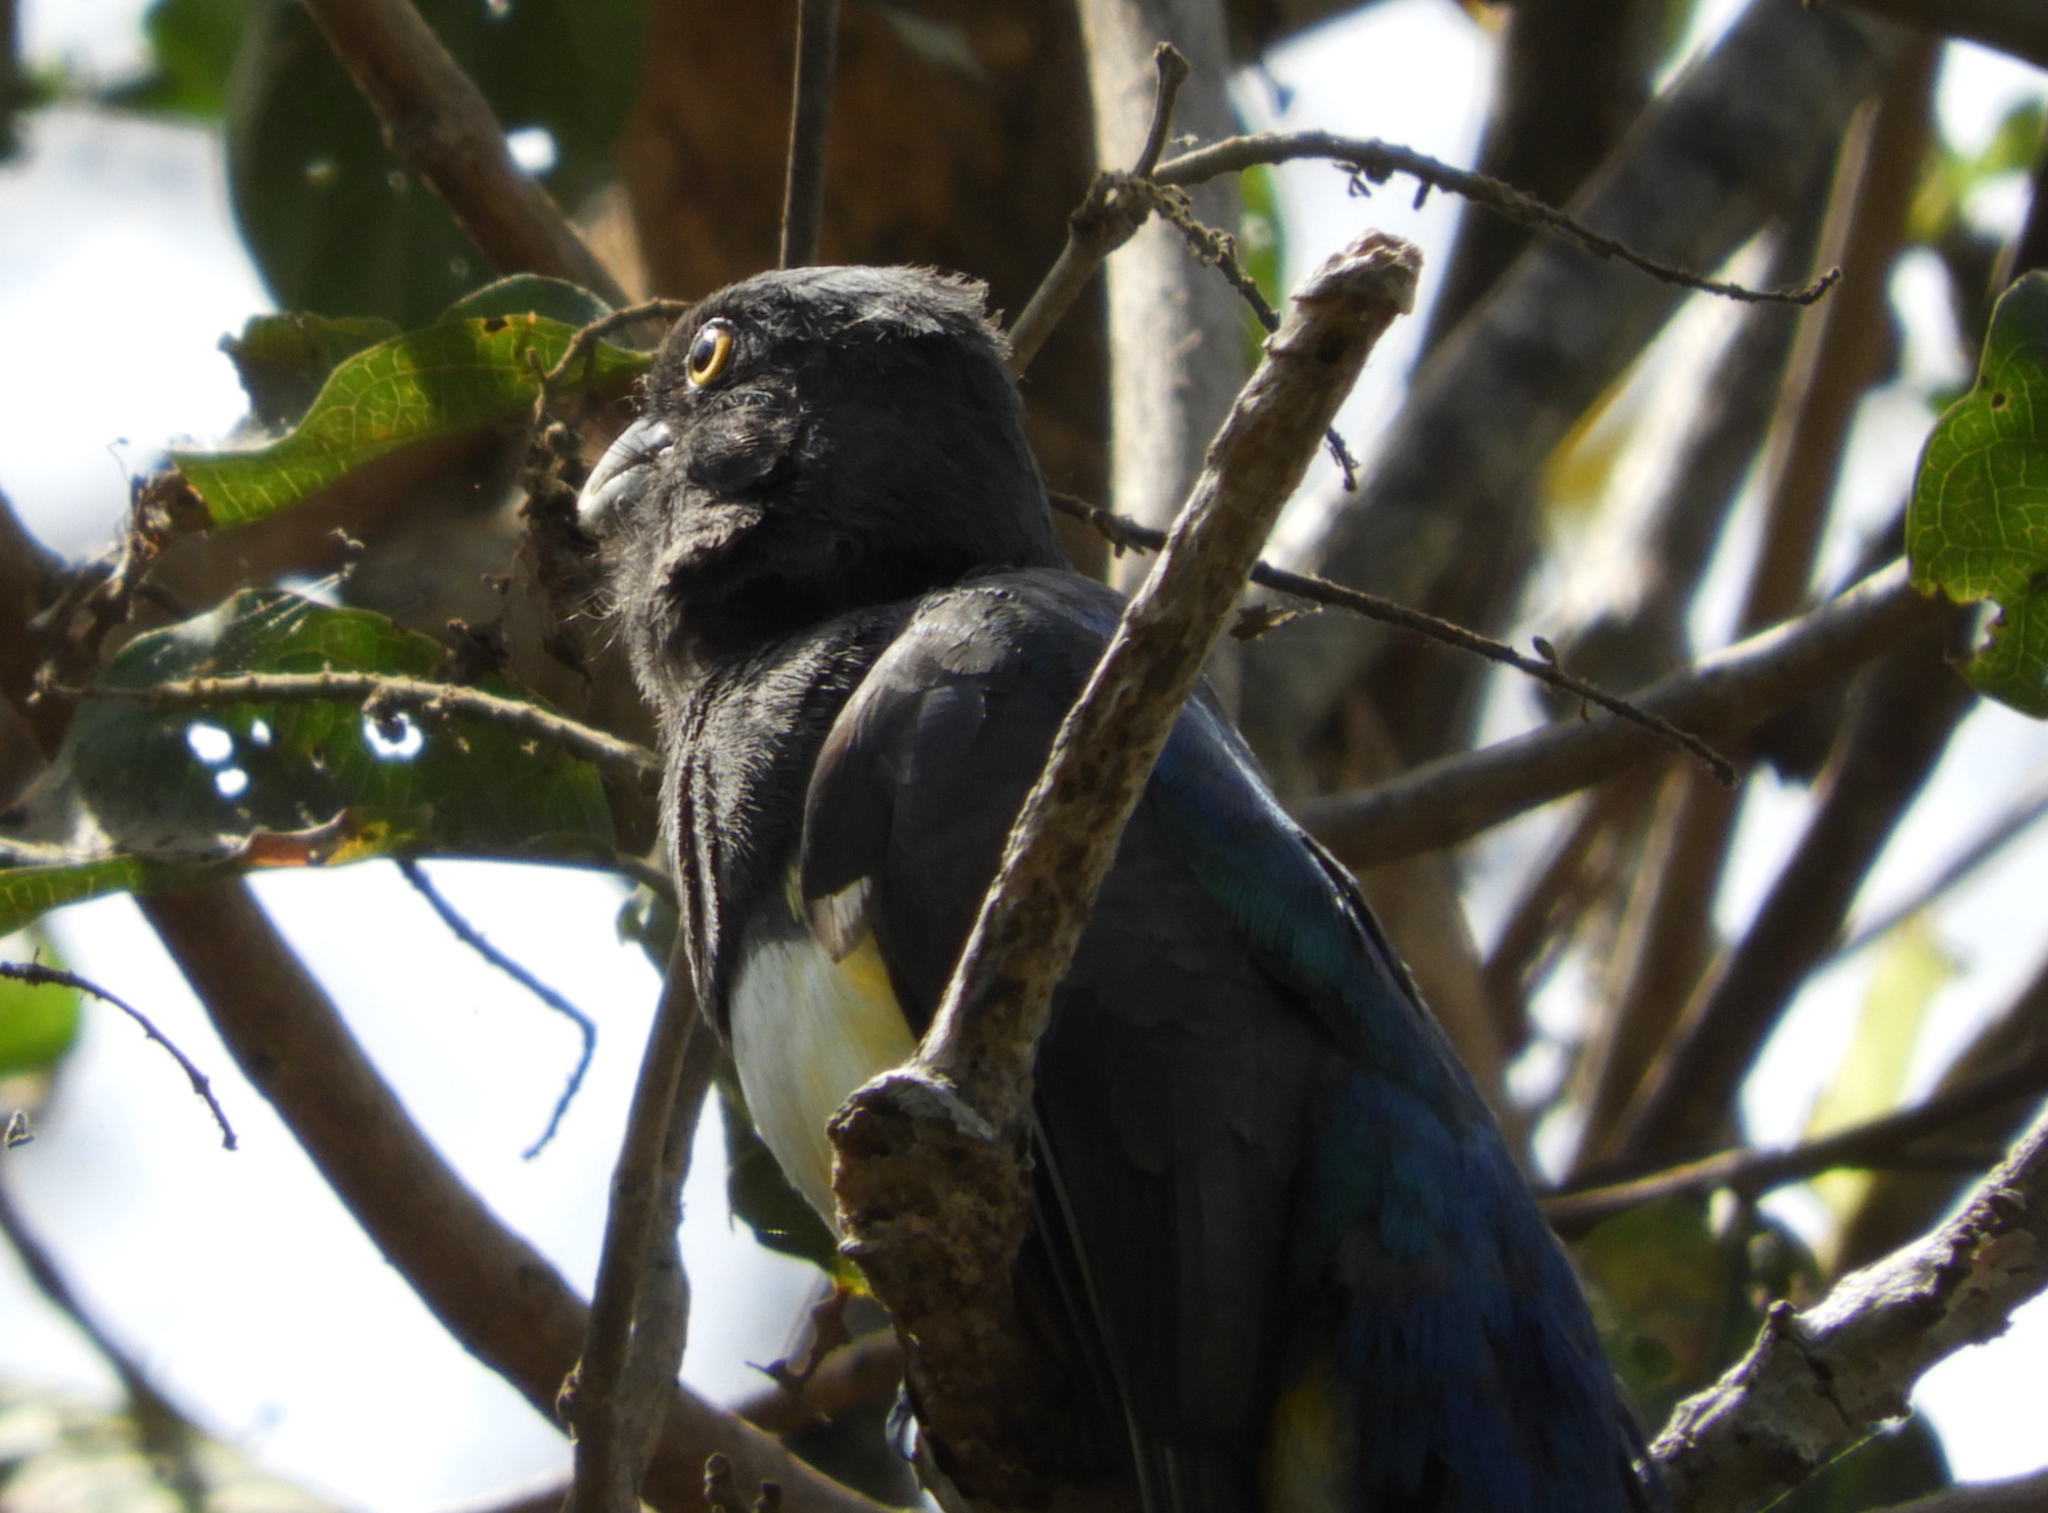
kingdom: Animalia
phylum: Chordata
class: Aves
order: Trogoniformes
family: Trogonidae
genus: Trogon
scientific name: Trogon elegans
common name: Elegant trogon
